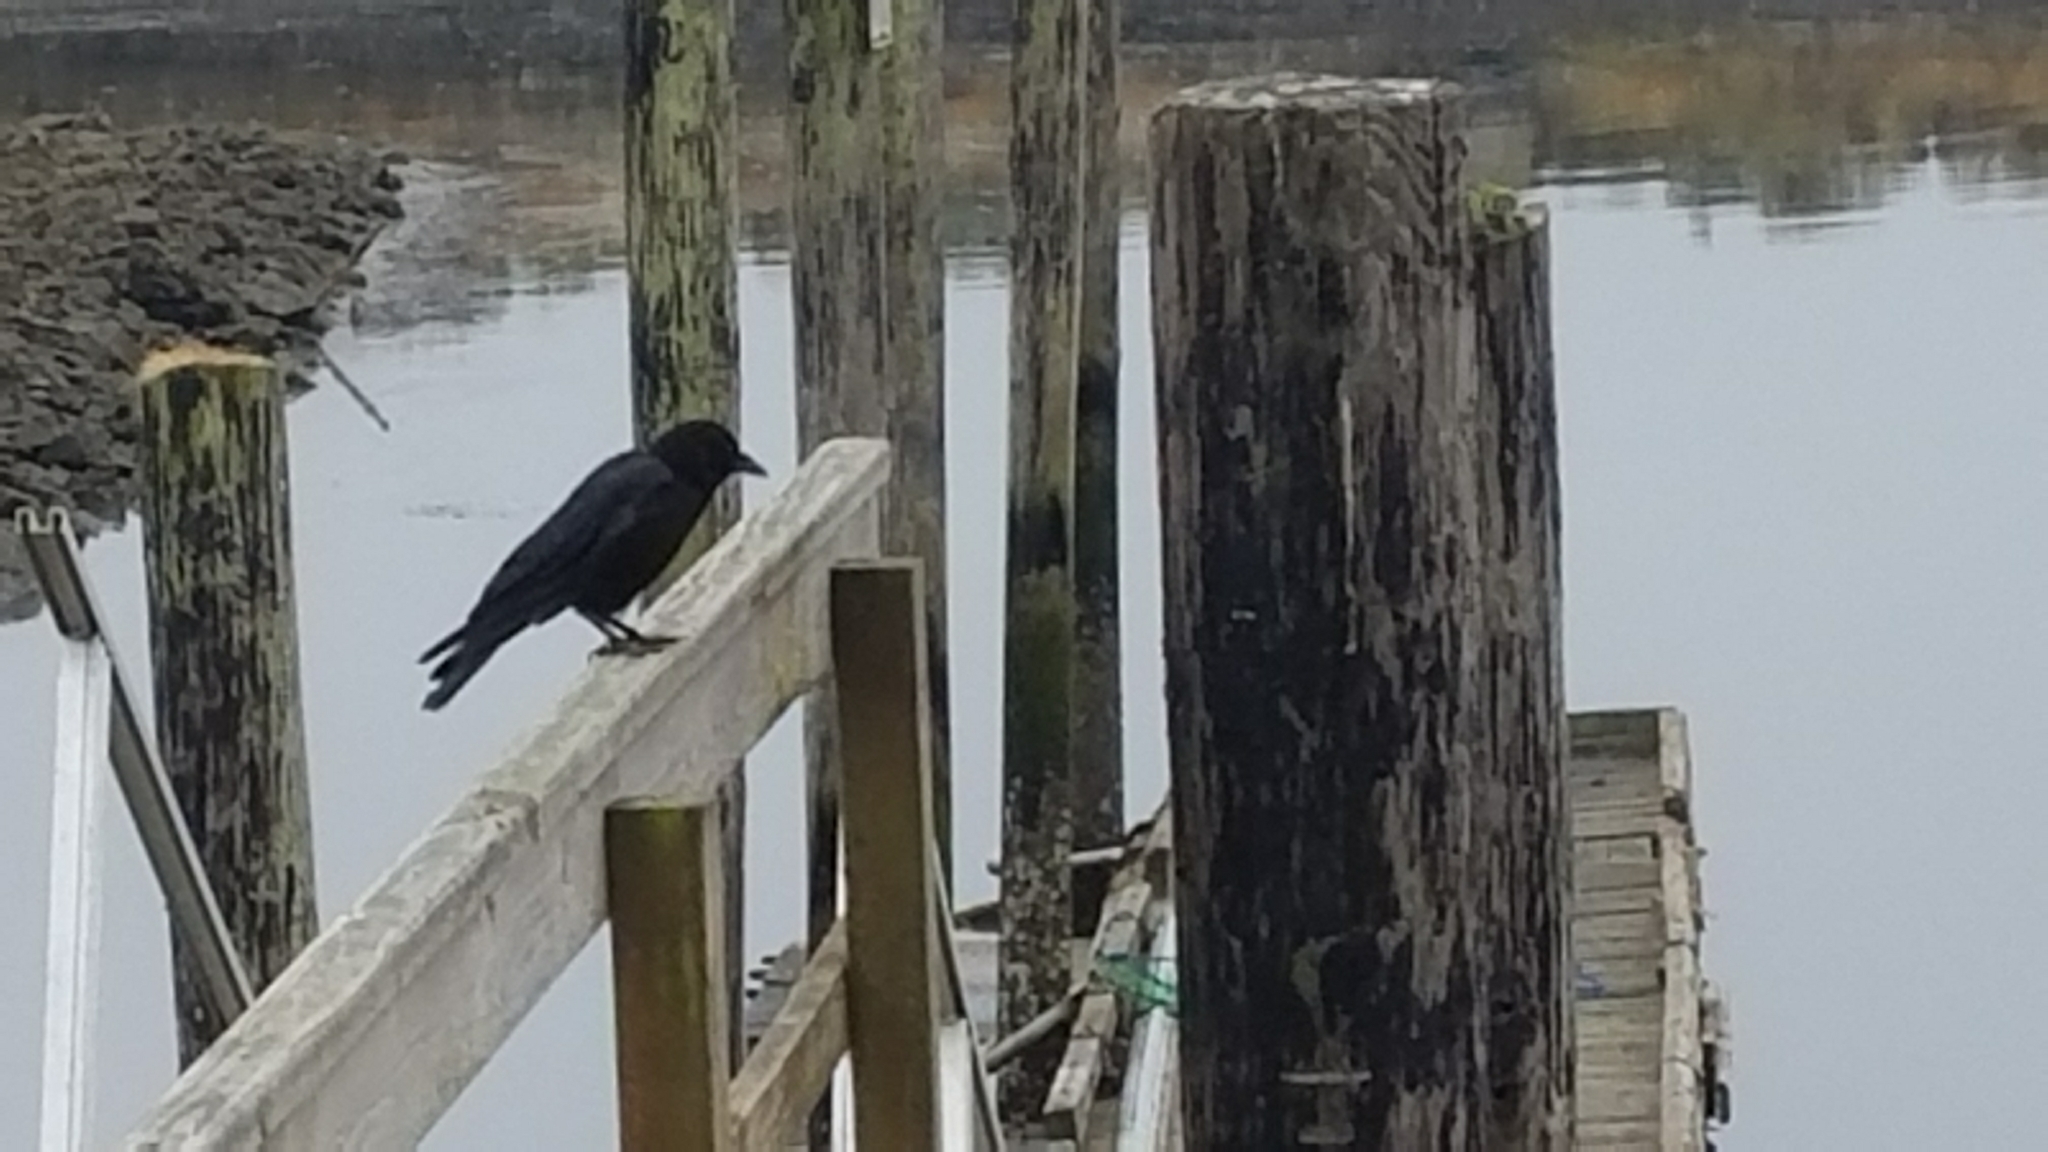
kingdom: Animalia
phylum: Chordata
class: Aves
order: Passeriformes
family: Corvidae
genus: Corvus
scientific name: Corvus brachyrhynchos
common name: American crow
